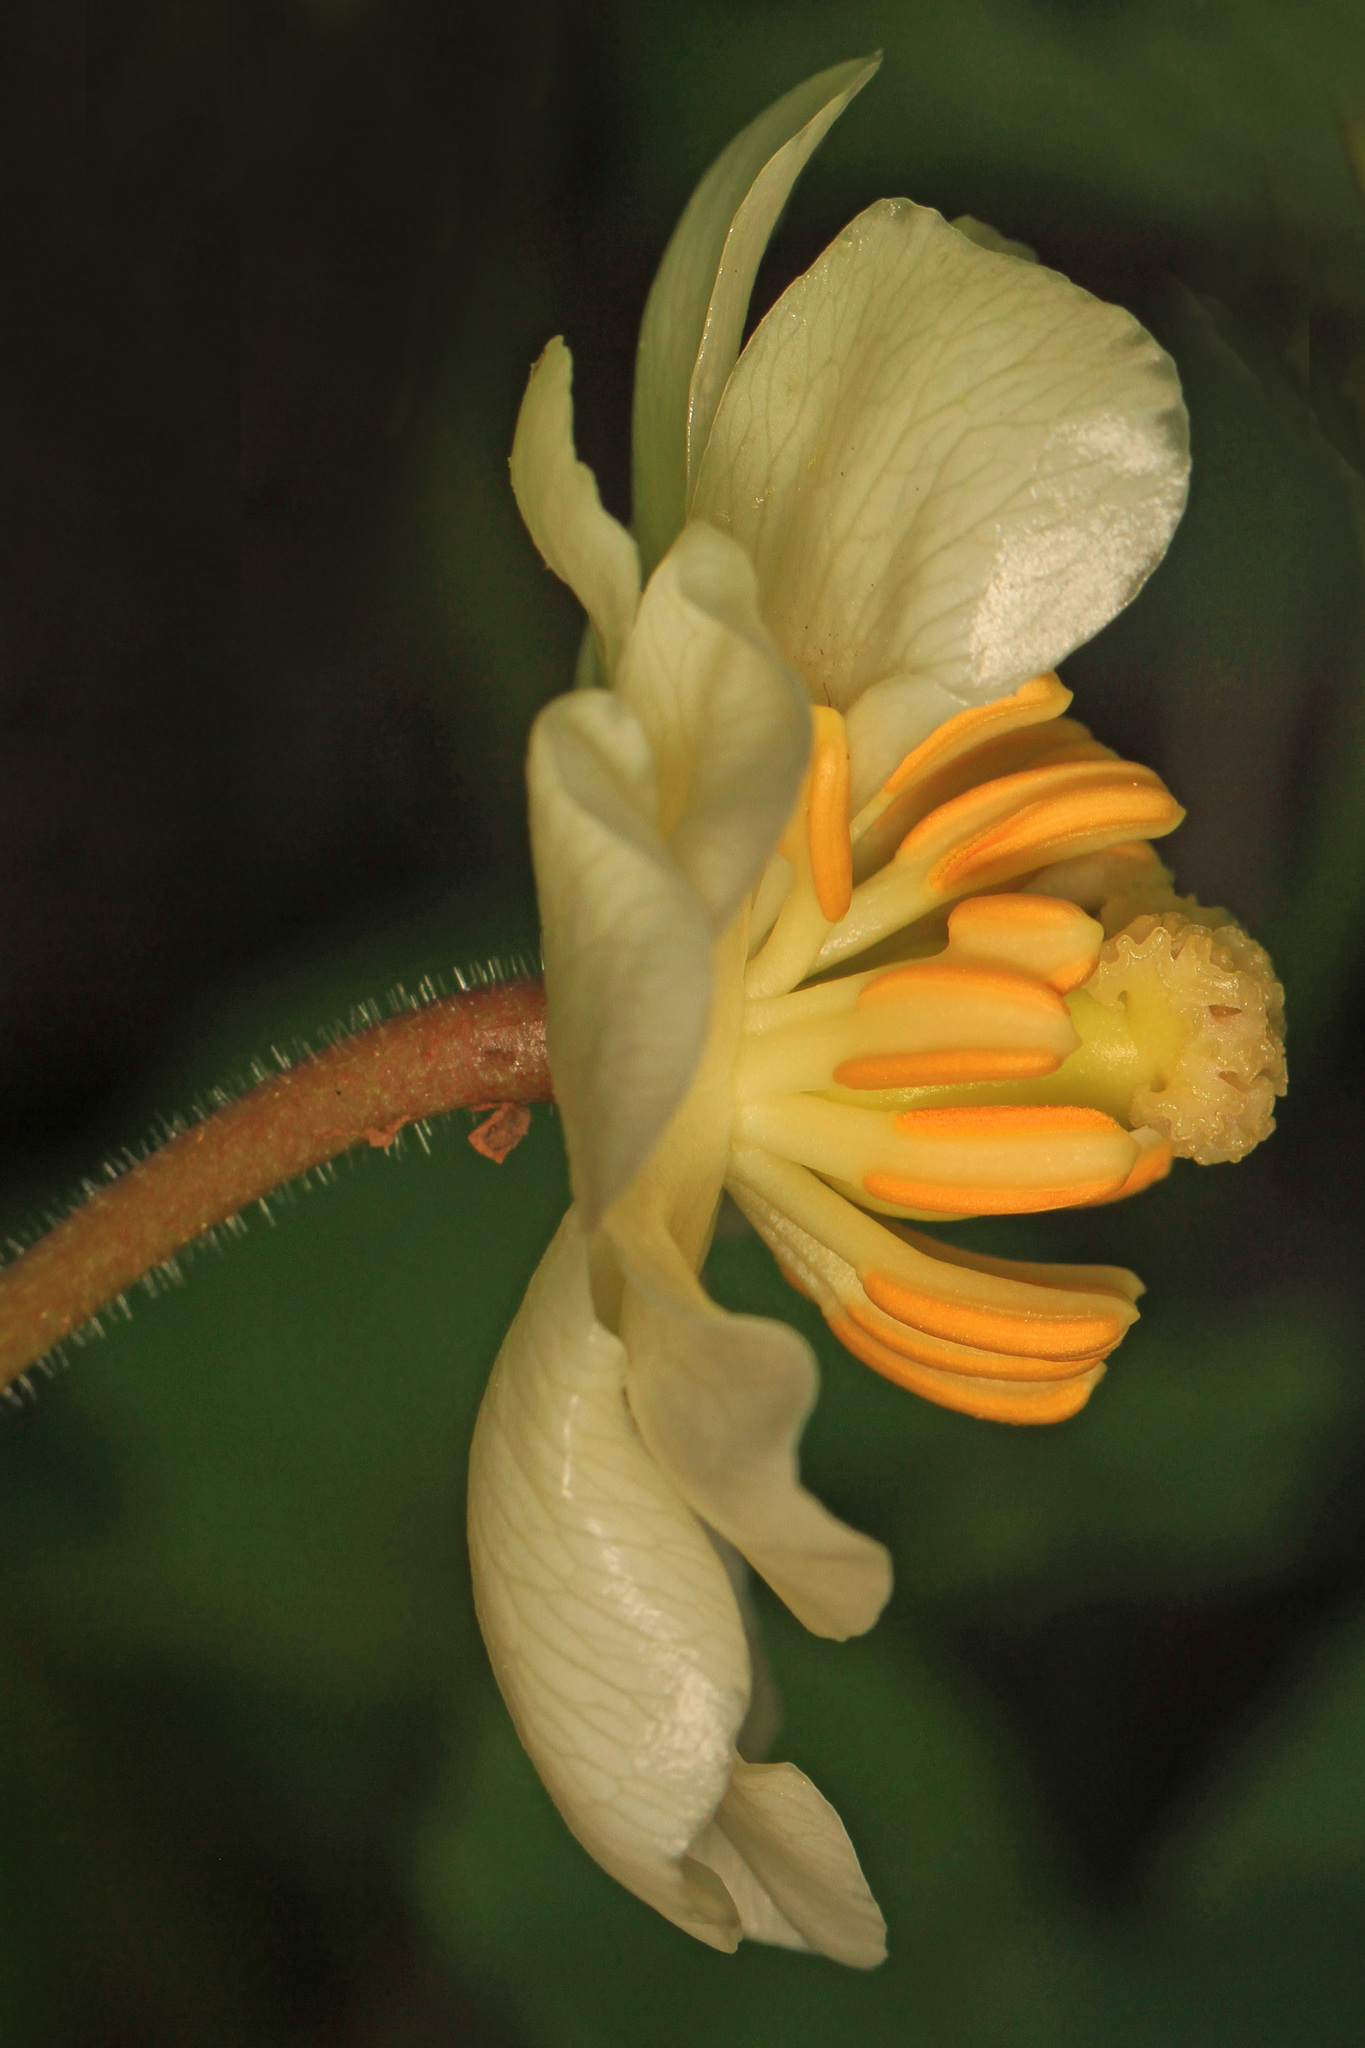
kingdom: Plantae
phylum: Tracheophyta
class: Magnoliopsida
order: Ranunculales
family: Berberidaceae
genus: Podophyllum
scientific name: Podophyllum peltatum
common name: Wild mandrake
